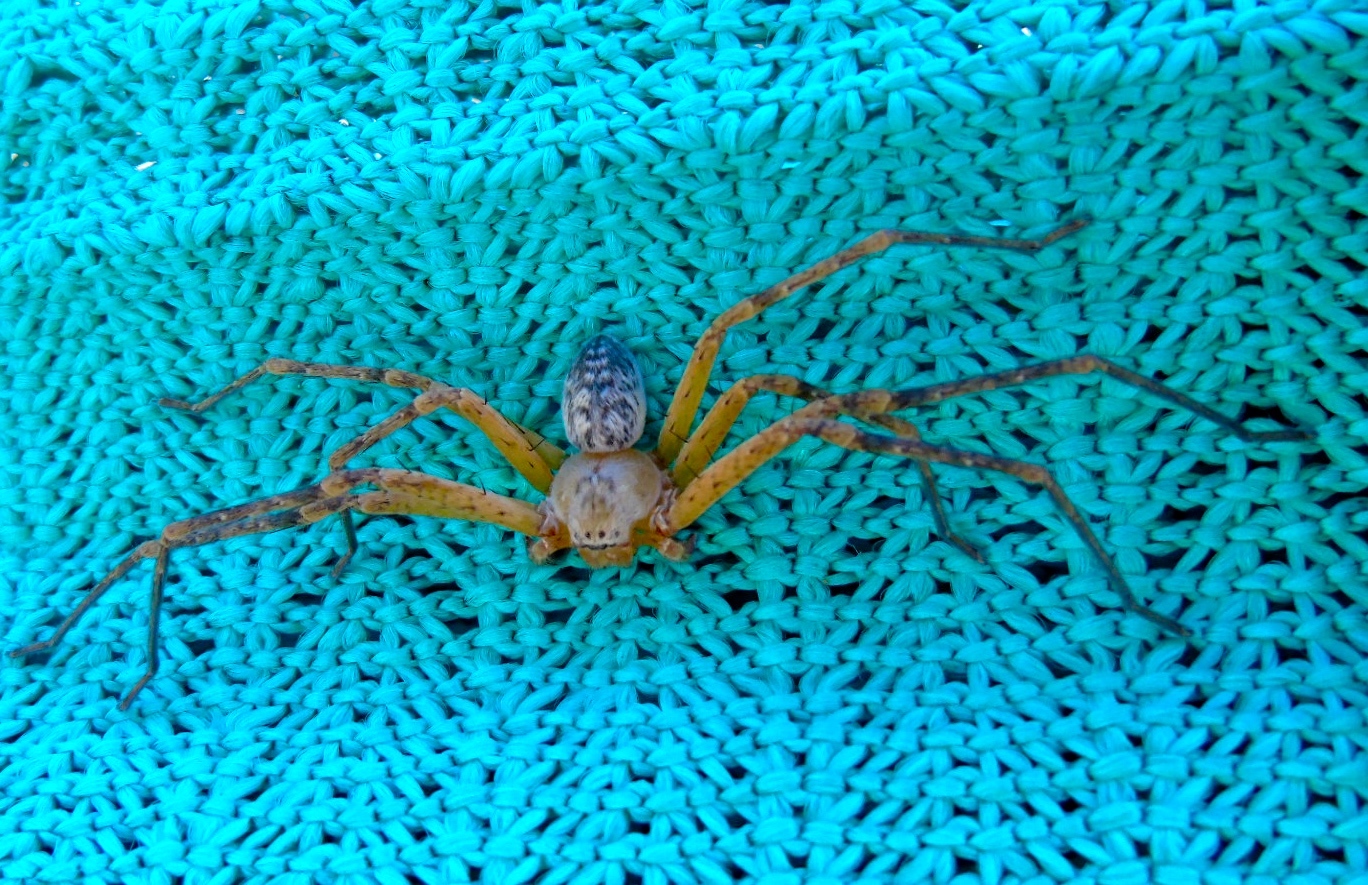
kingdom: Animalia
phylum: Arthropoda
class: Arachnida
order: Araneae
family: Sparassidae
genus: Curicaberis
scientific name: Curicaberis culiacan
